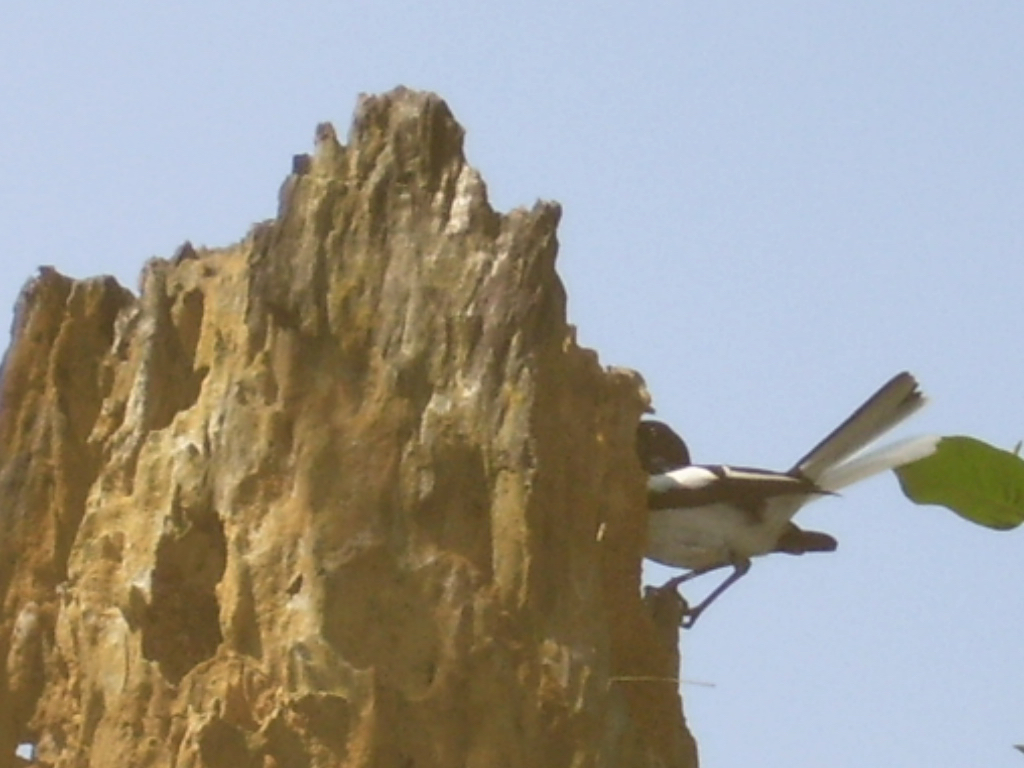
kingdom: Animalia
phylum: Chordata
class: Aves
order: Passeriformes
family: Muscicapidae
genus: Copsychus
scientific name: Copsychus saularis
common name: Oriental magpie-robin
